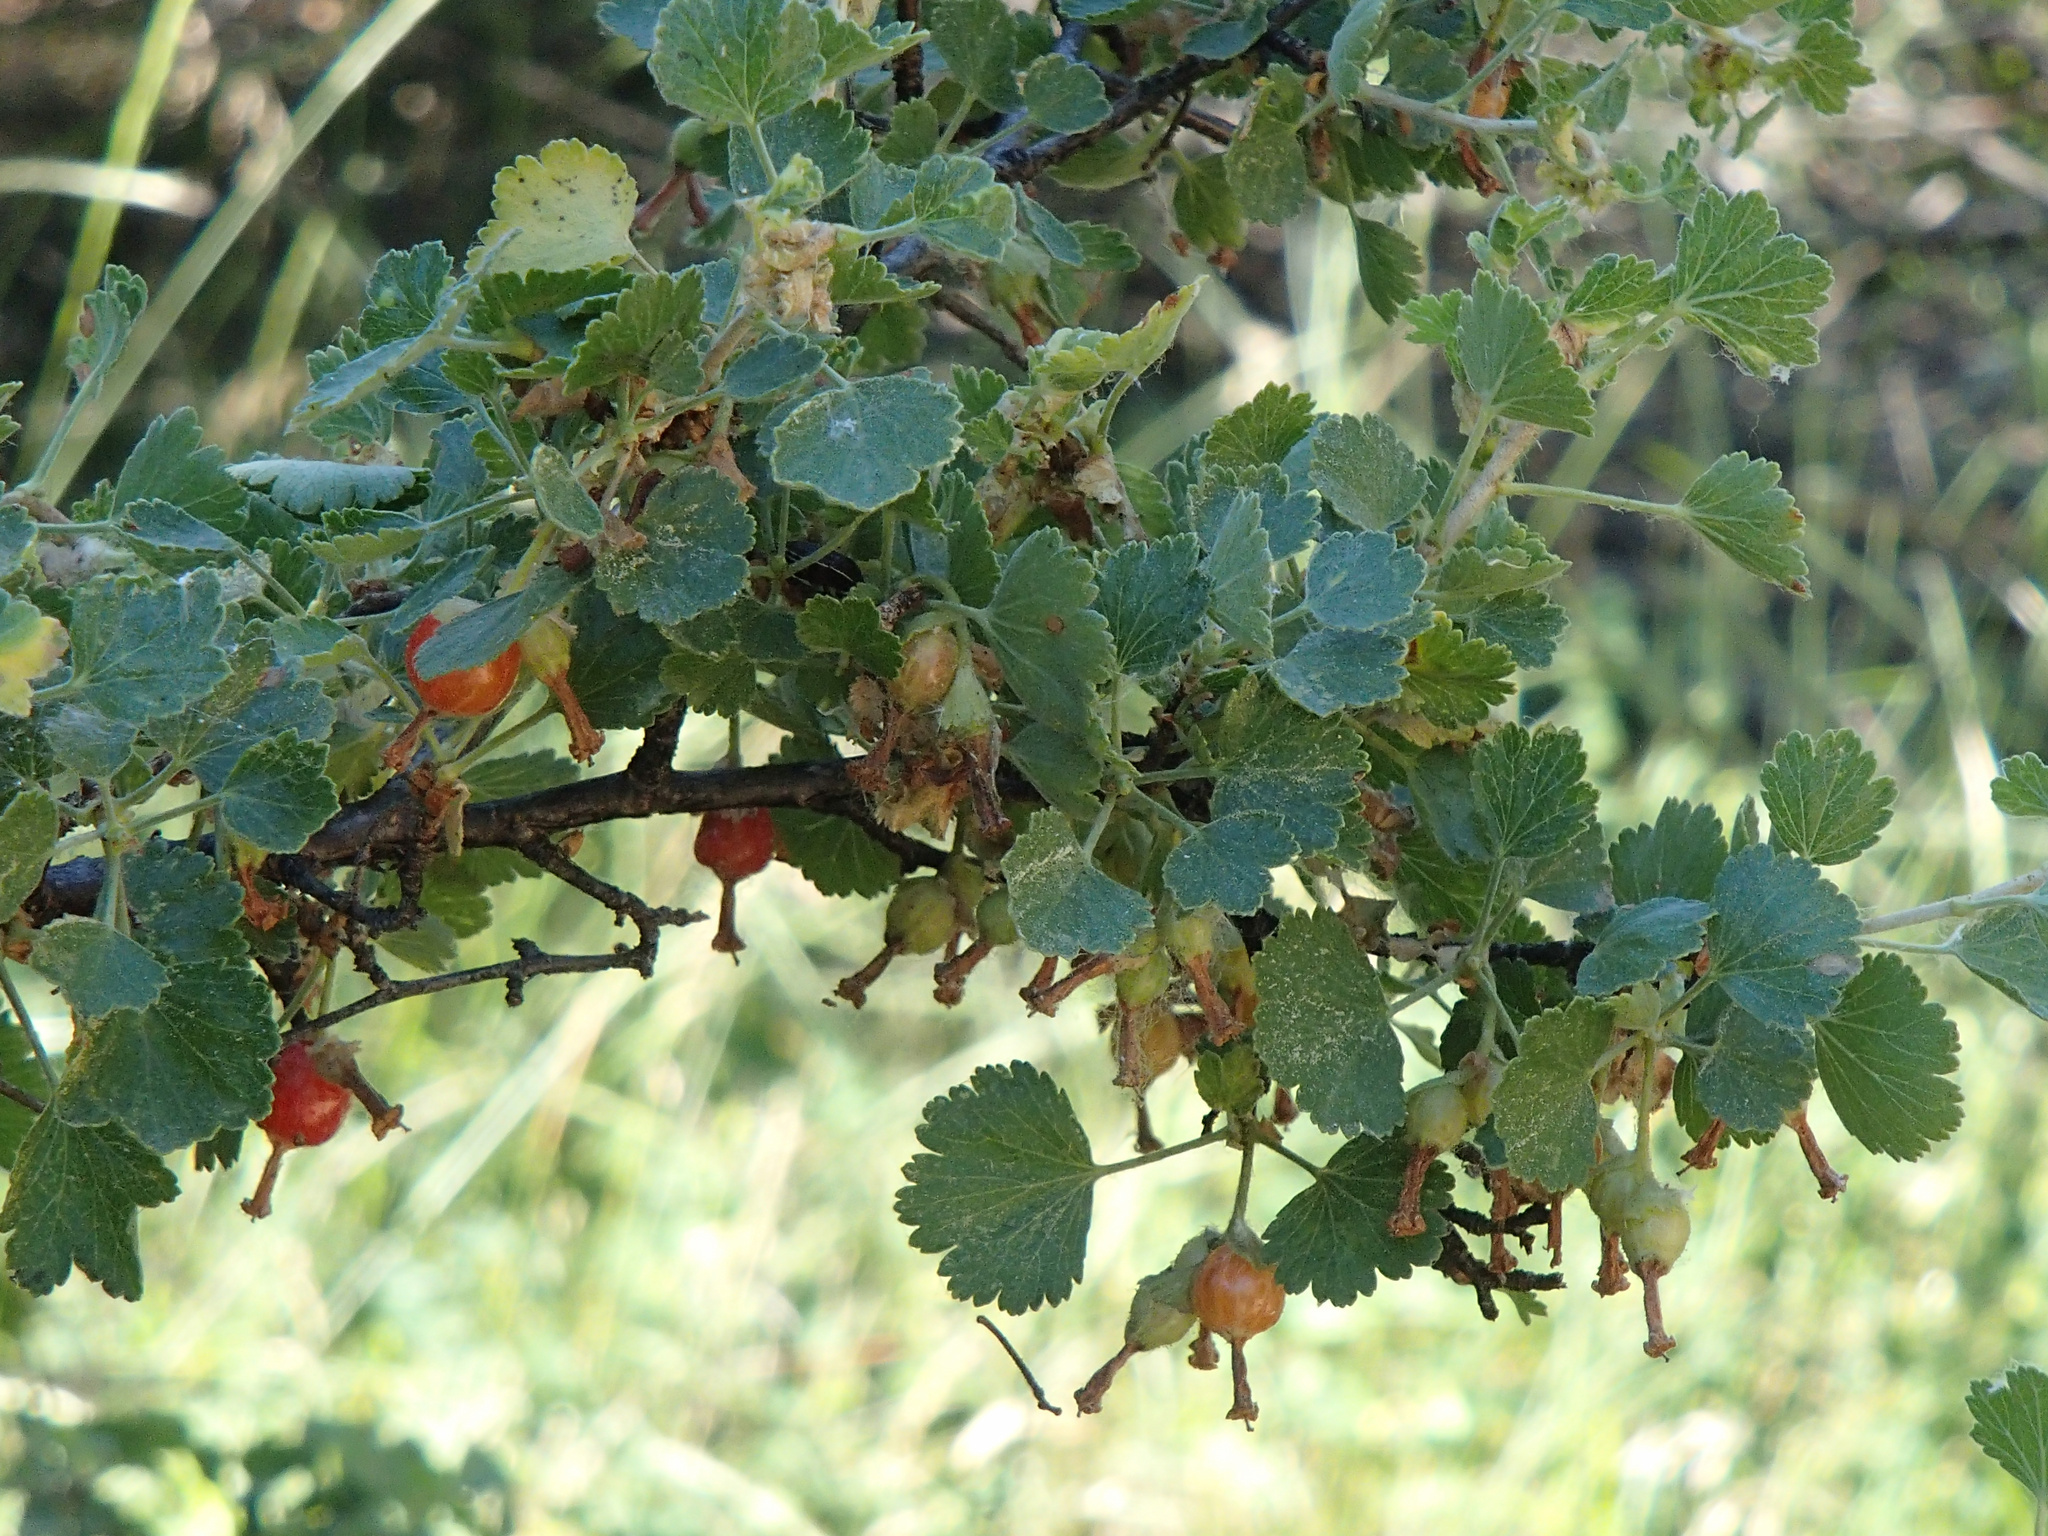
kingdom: Plantae
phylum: Tracheophyta
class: Magnoliopsida
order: Saxifragales
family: Grossulariaceae
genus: Ribes
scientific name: Ribes cereum
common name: Wax currant
